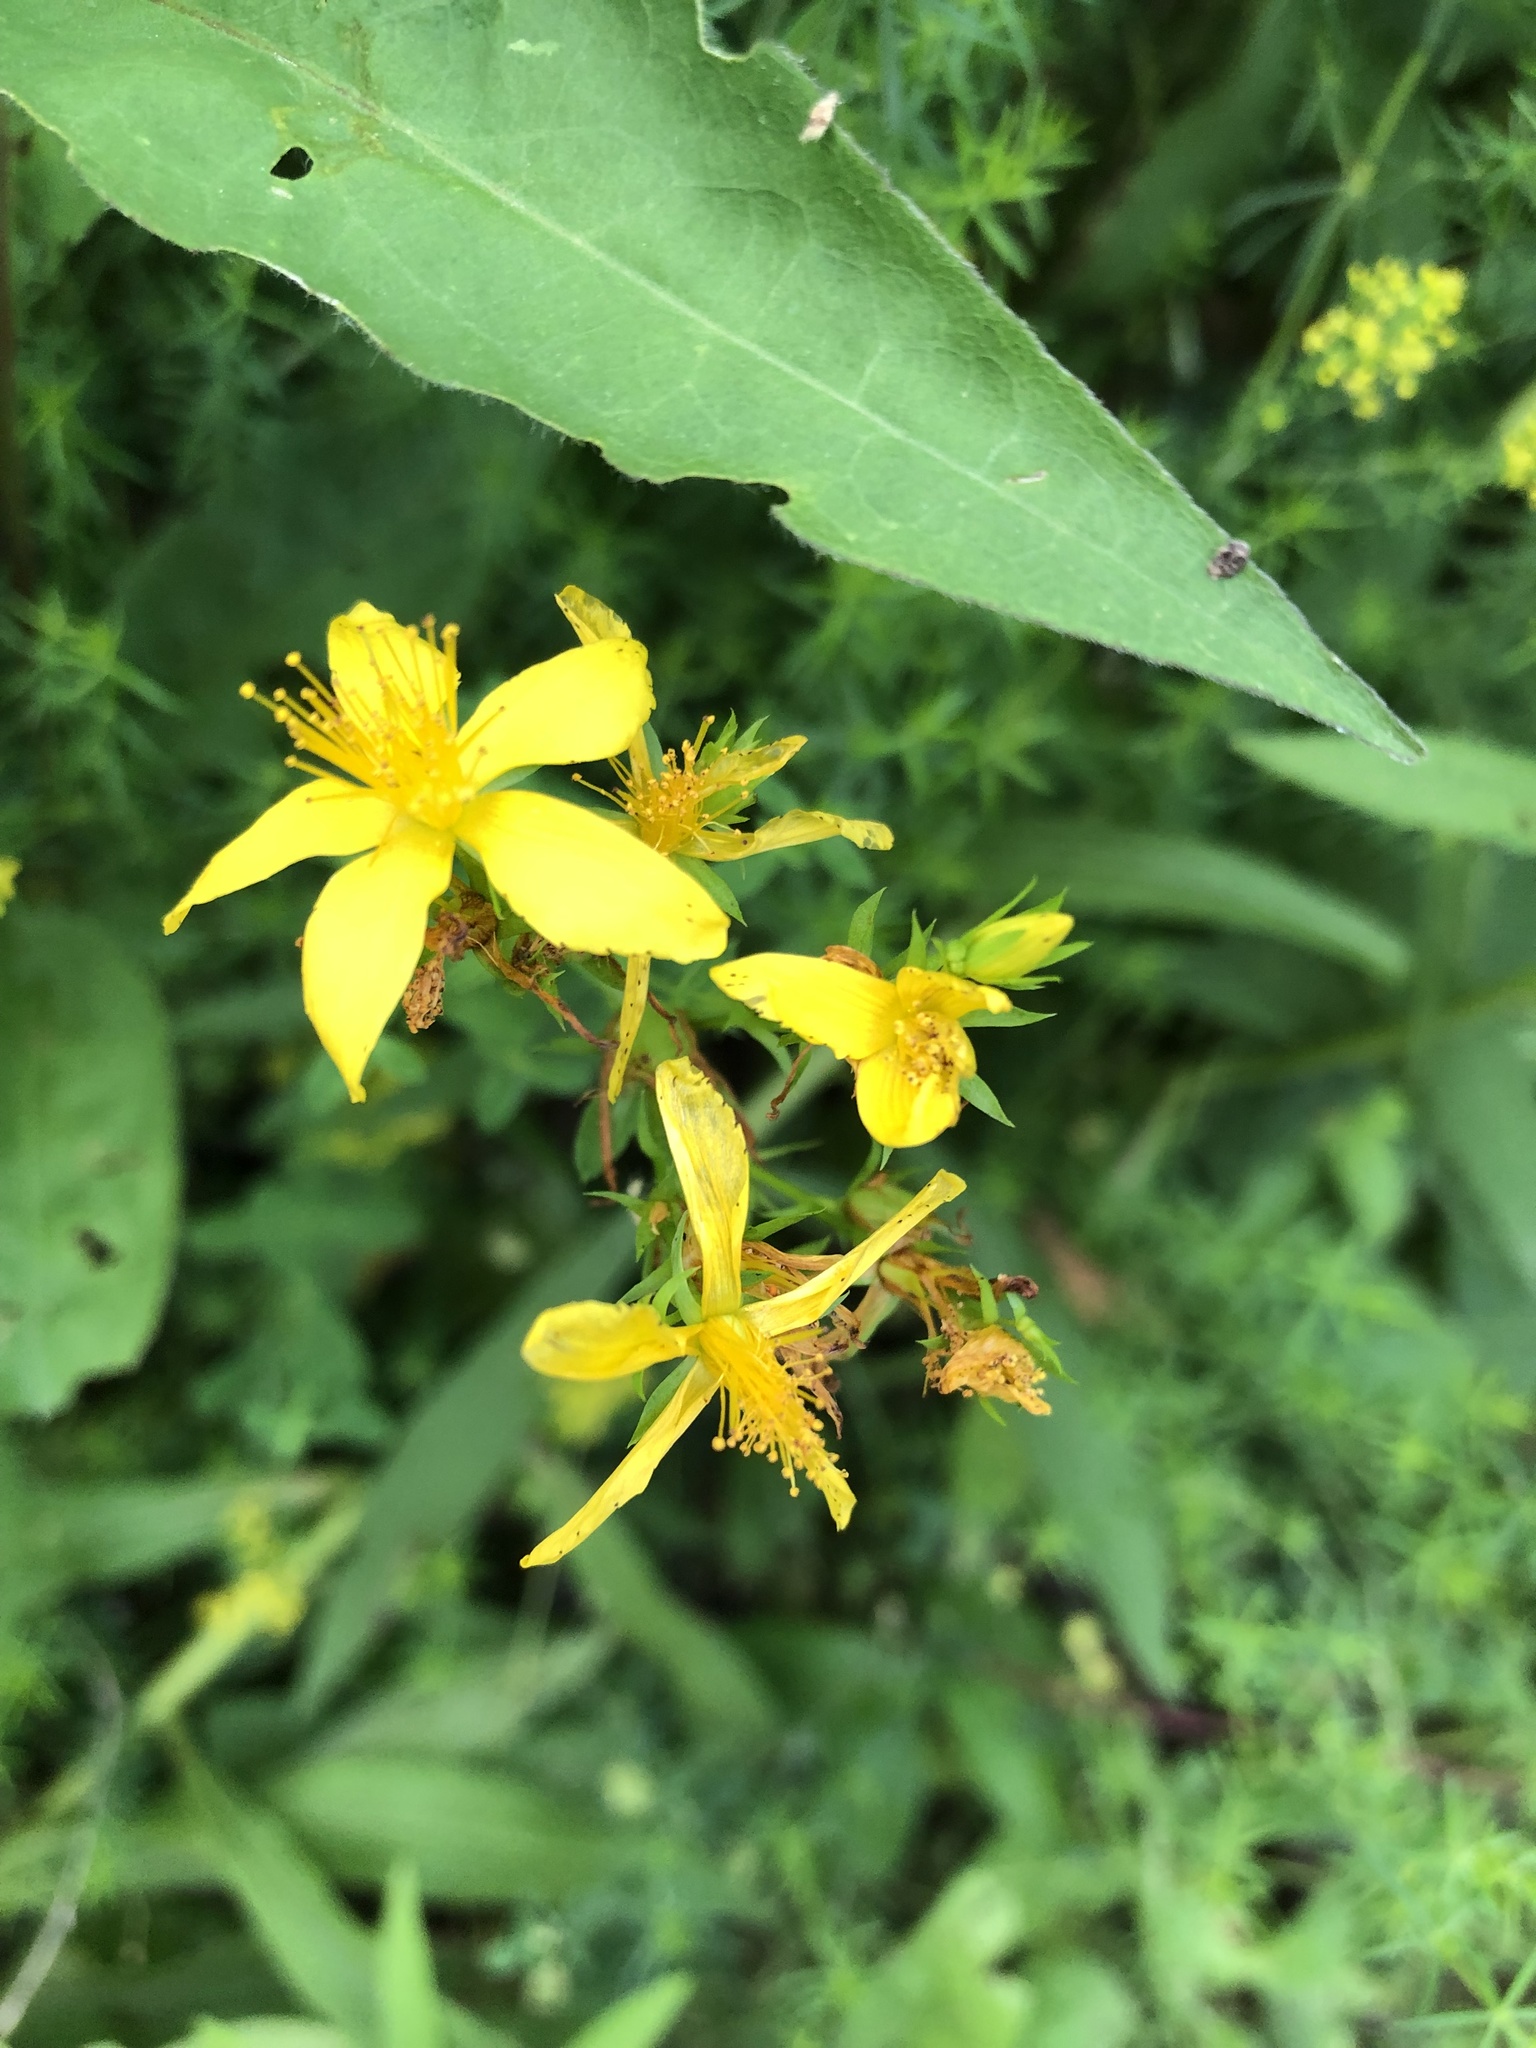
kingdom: Plantae
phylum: Tracheophyta
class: Magnoliopsida
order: Malpighiales
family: Hypericaceae
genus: Hypericum
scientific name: Hypericum perforatum
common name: Common st. johnswort
